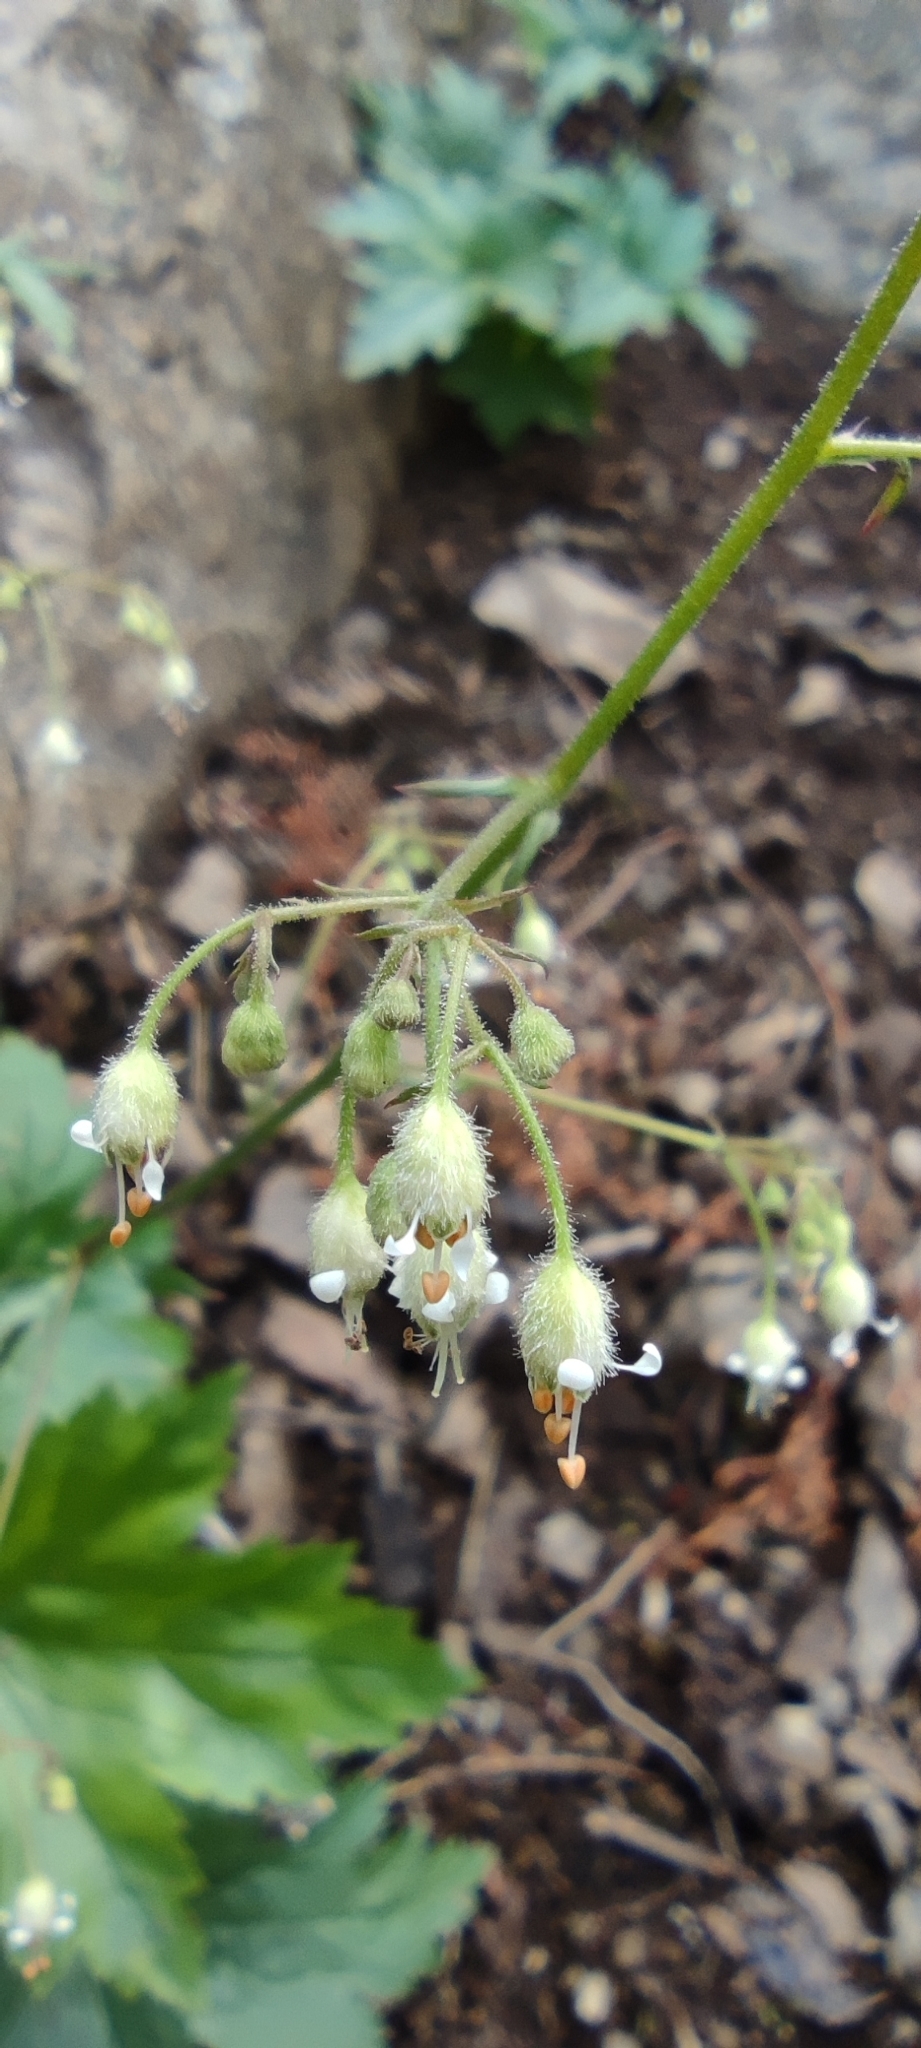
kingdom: Plantae
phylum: Tracheophyta
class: Magnoliopsida
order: Saxifragales
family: Saxifragaceae
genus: Heuchera
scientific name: Heuchera glabra
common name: Alpine alumroot
